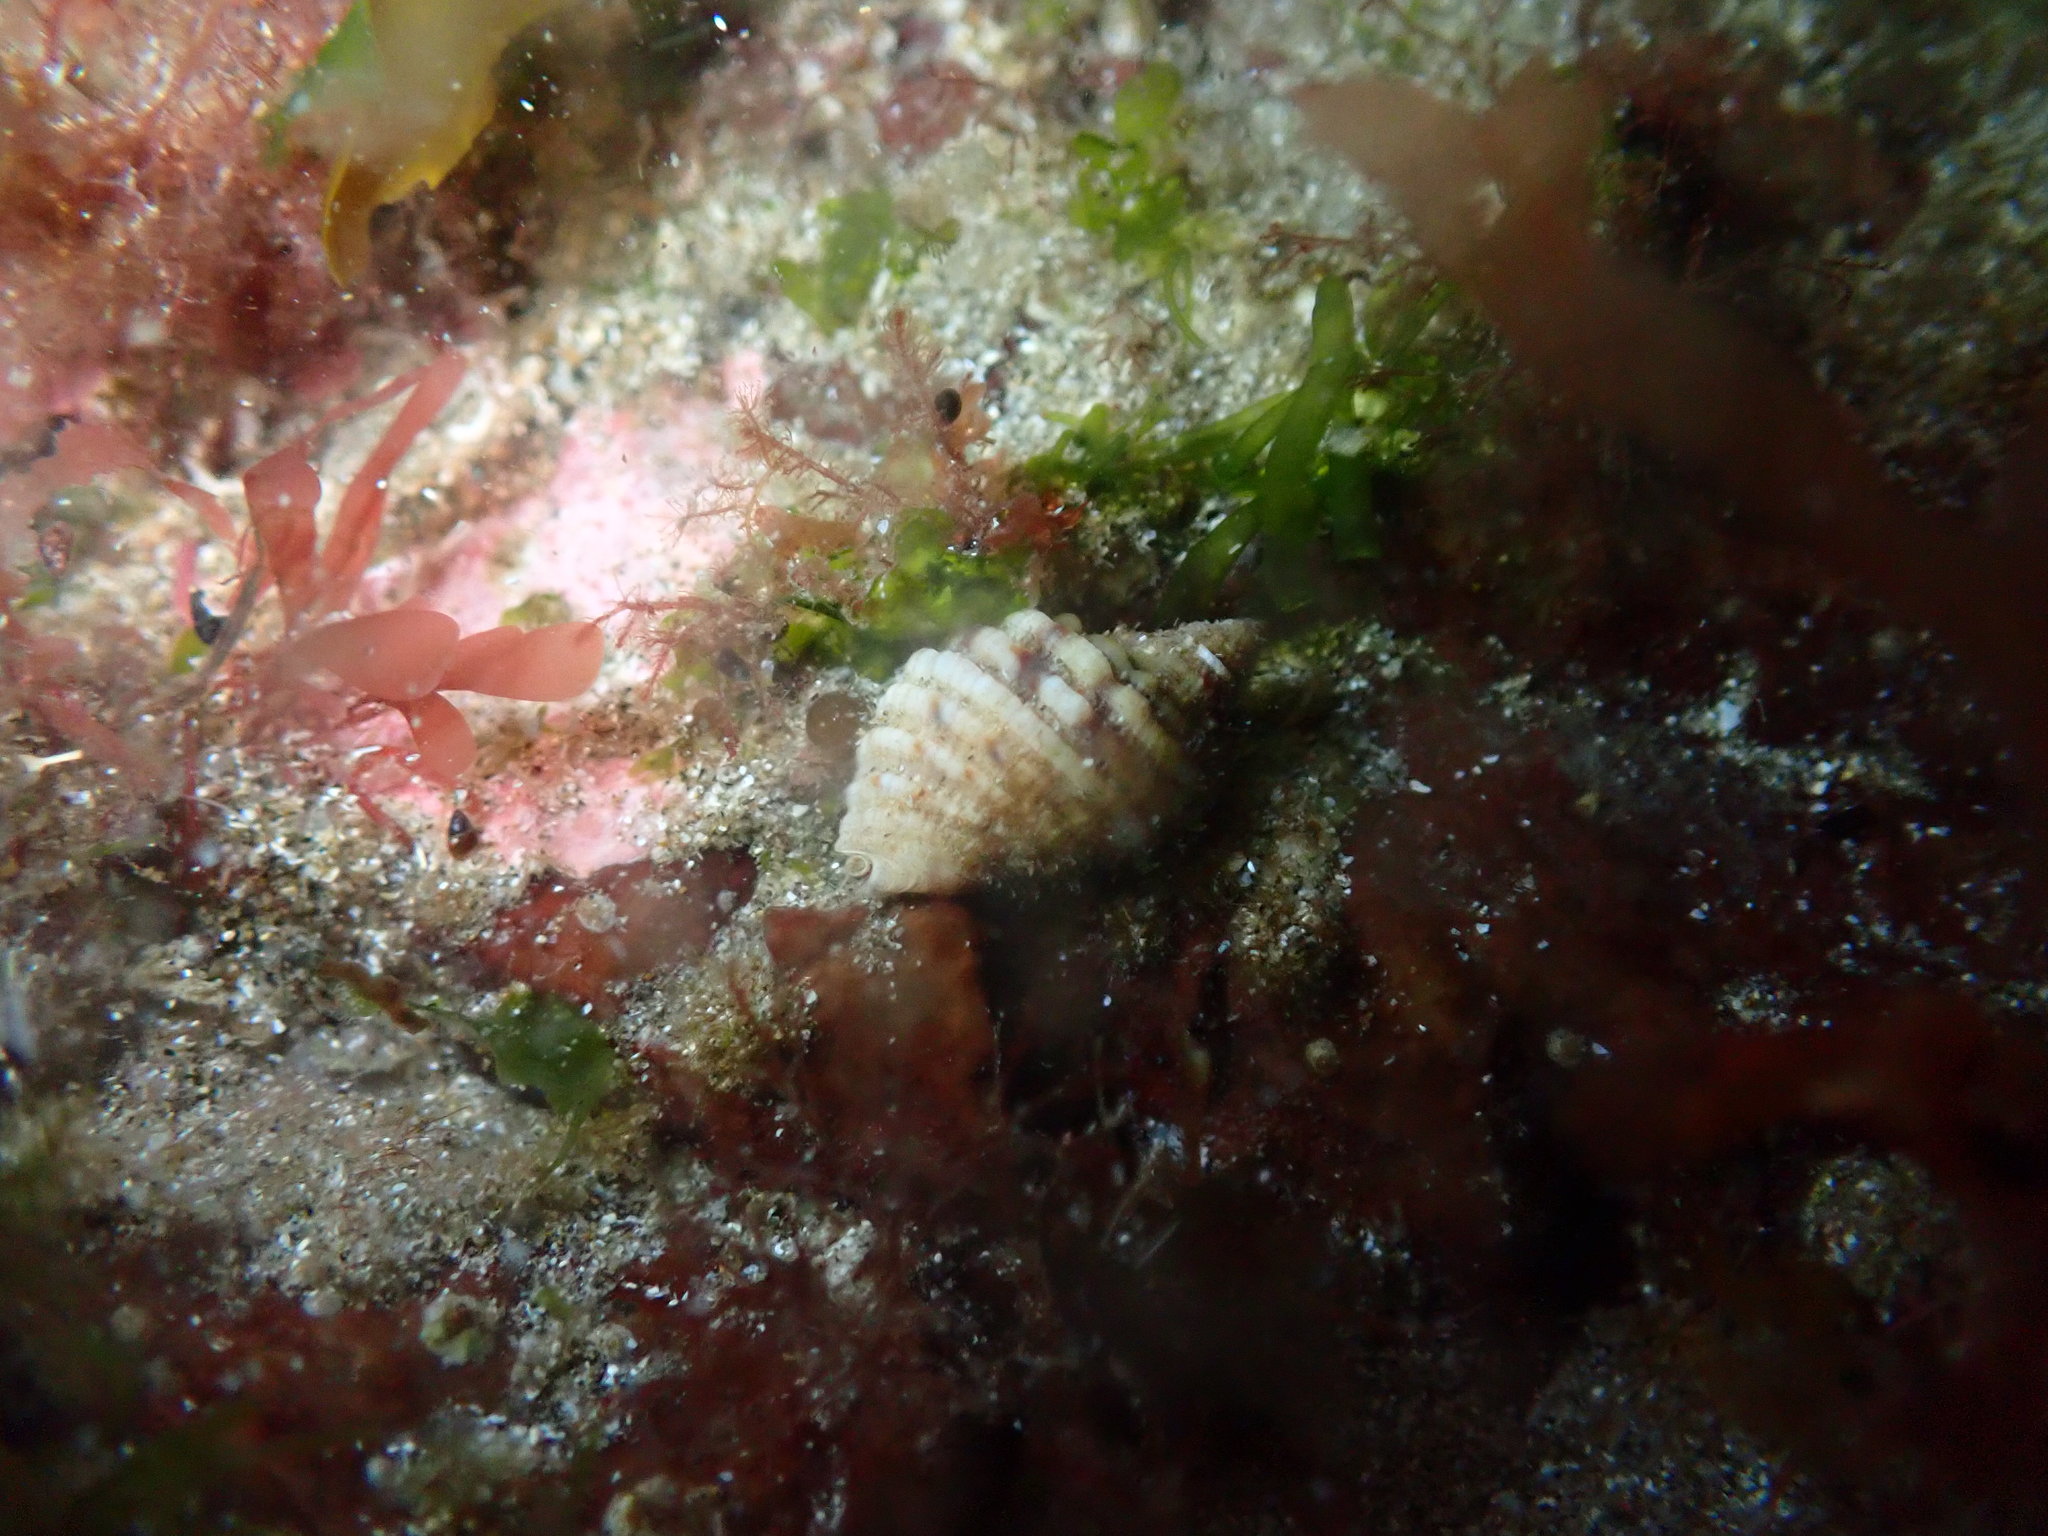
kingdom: Animalia
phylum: Mollusca
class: Gastropoda
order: Neogastropoda
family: Muricidae
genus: Dicathais
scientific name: Dicathais orbita
